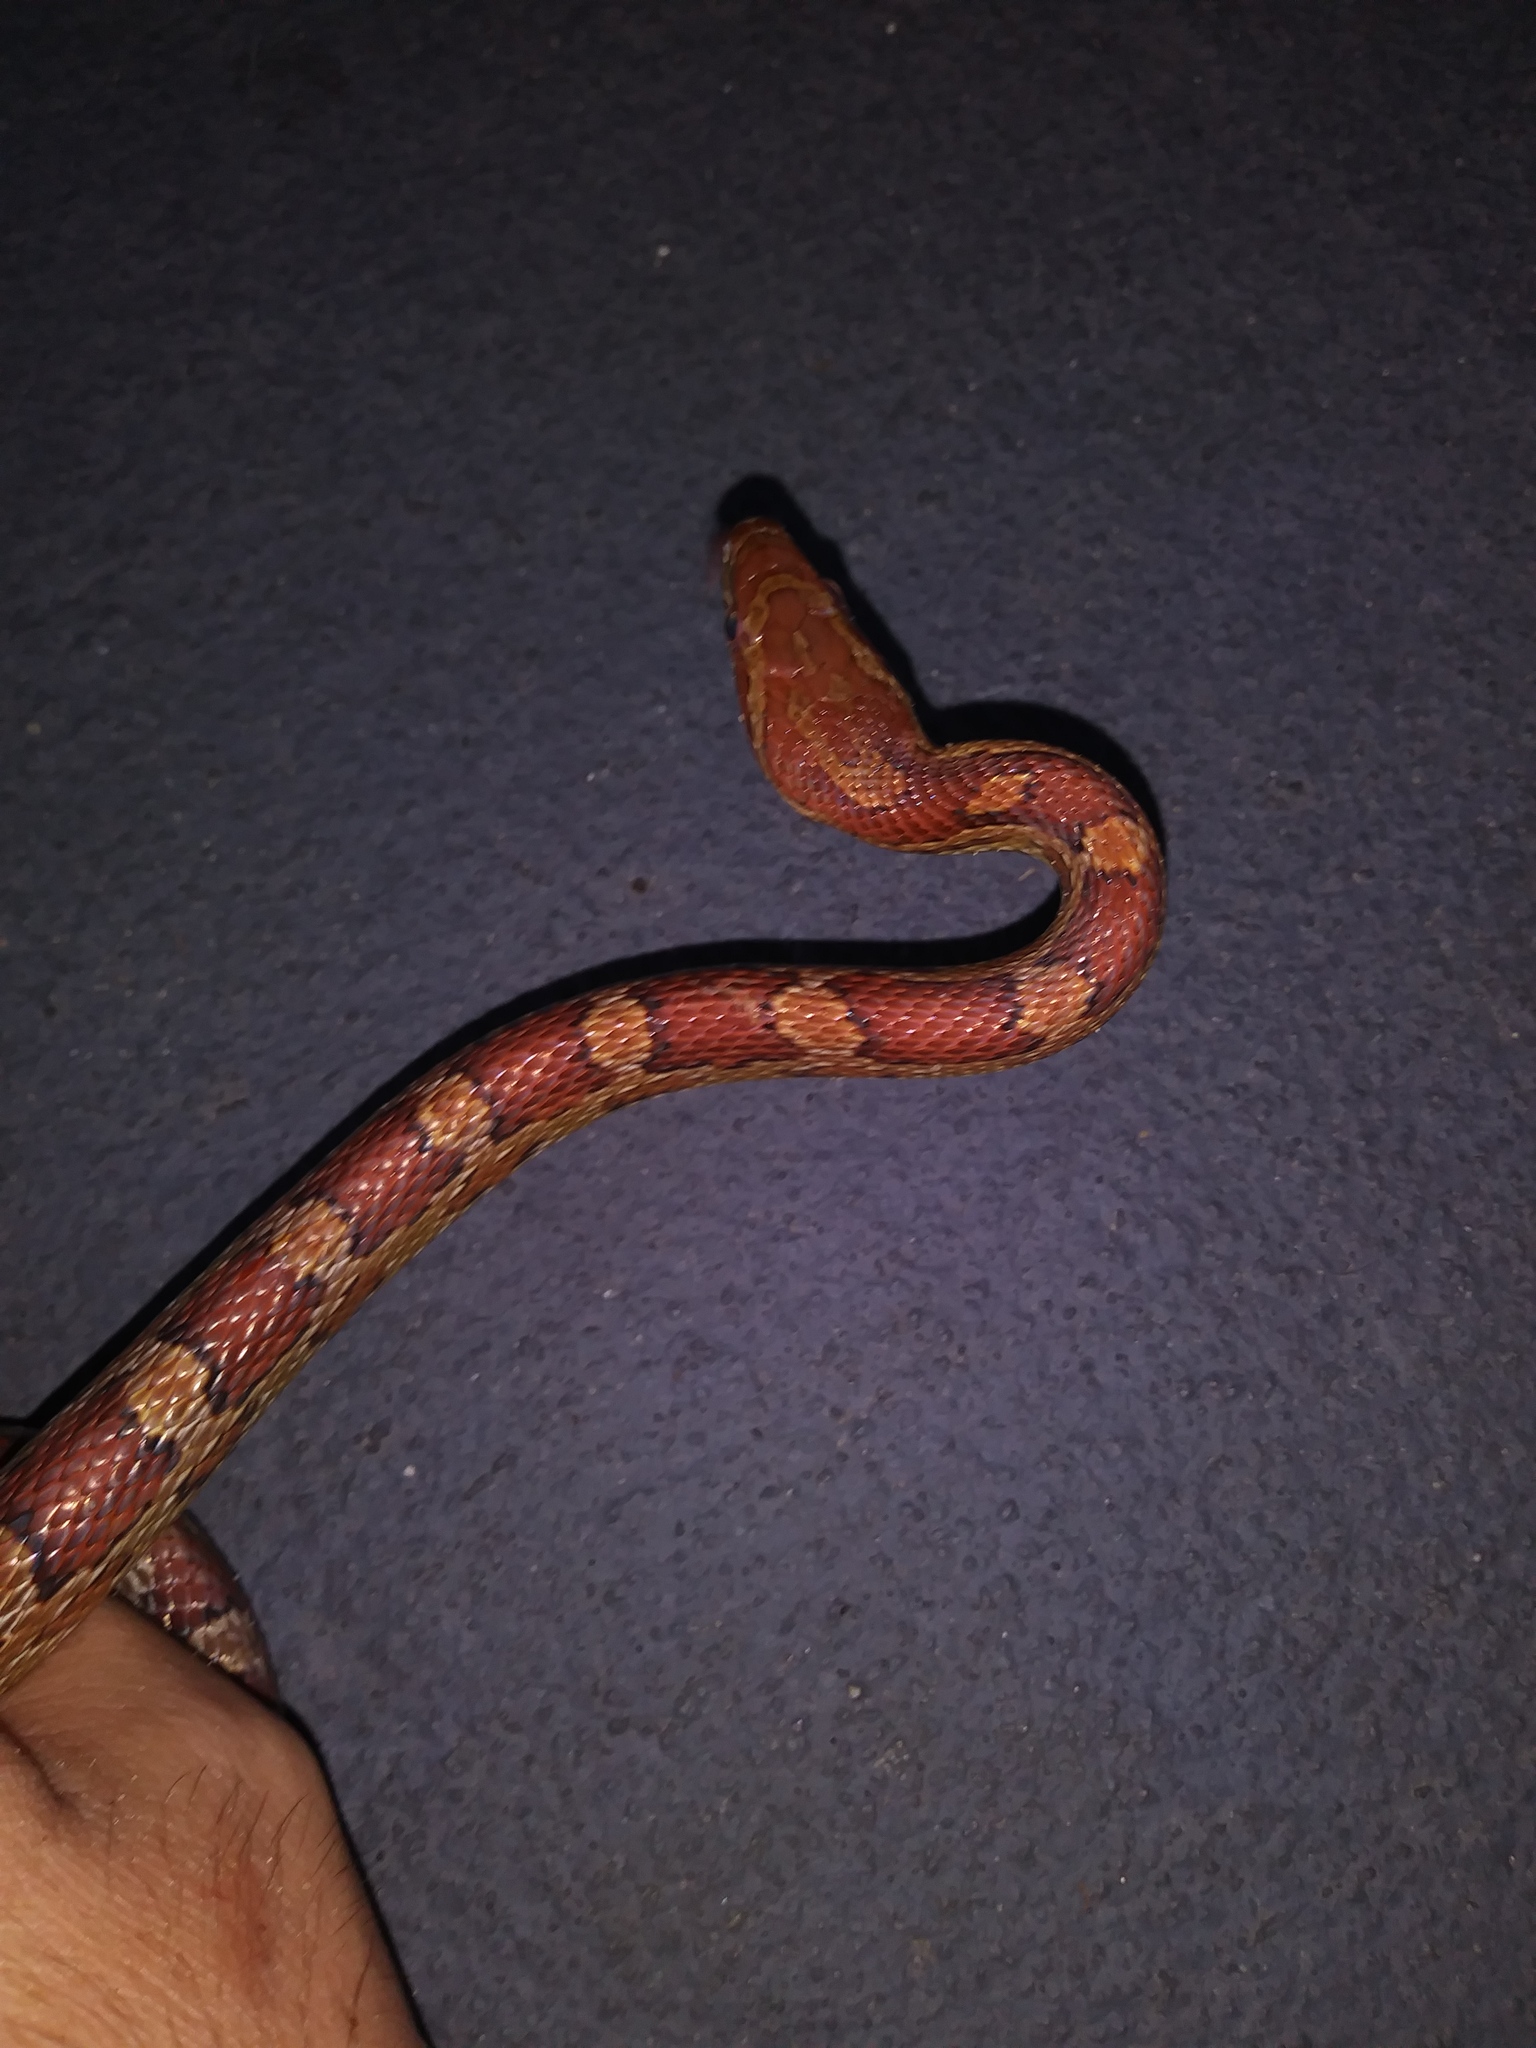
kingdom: Animalia
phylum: Chordata
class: Squamata
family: Colubridae
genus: Pantherophis
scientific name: Pantherophis guttatus
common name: Red cornsnake
